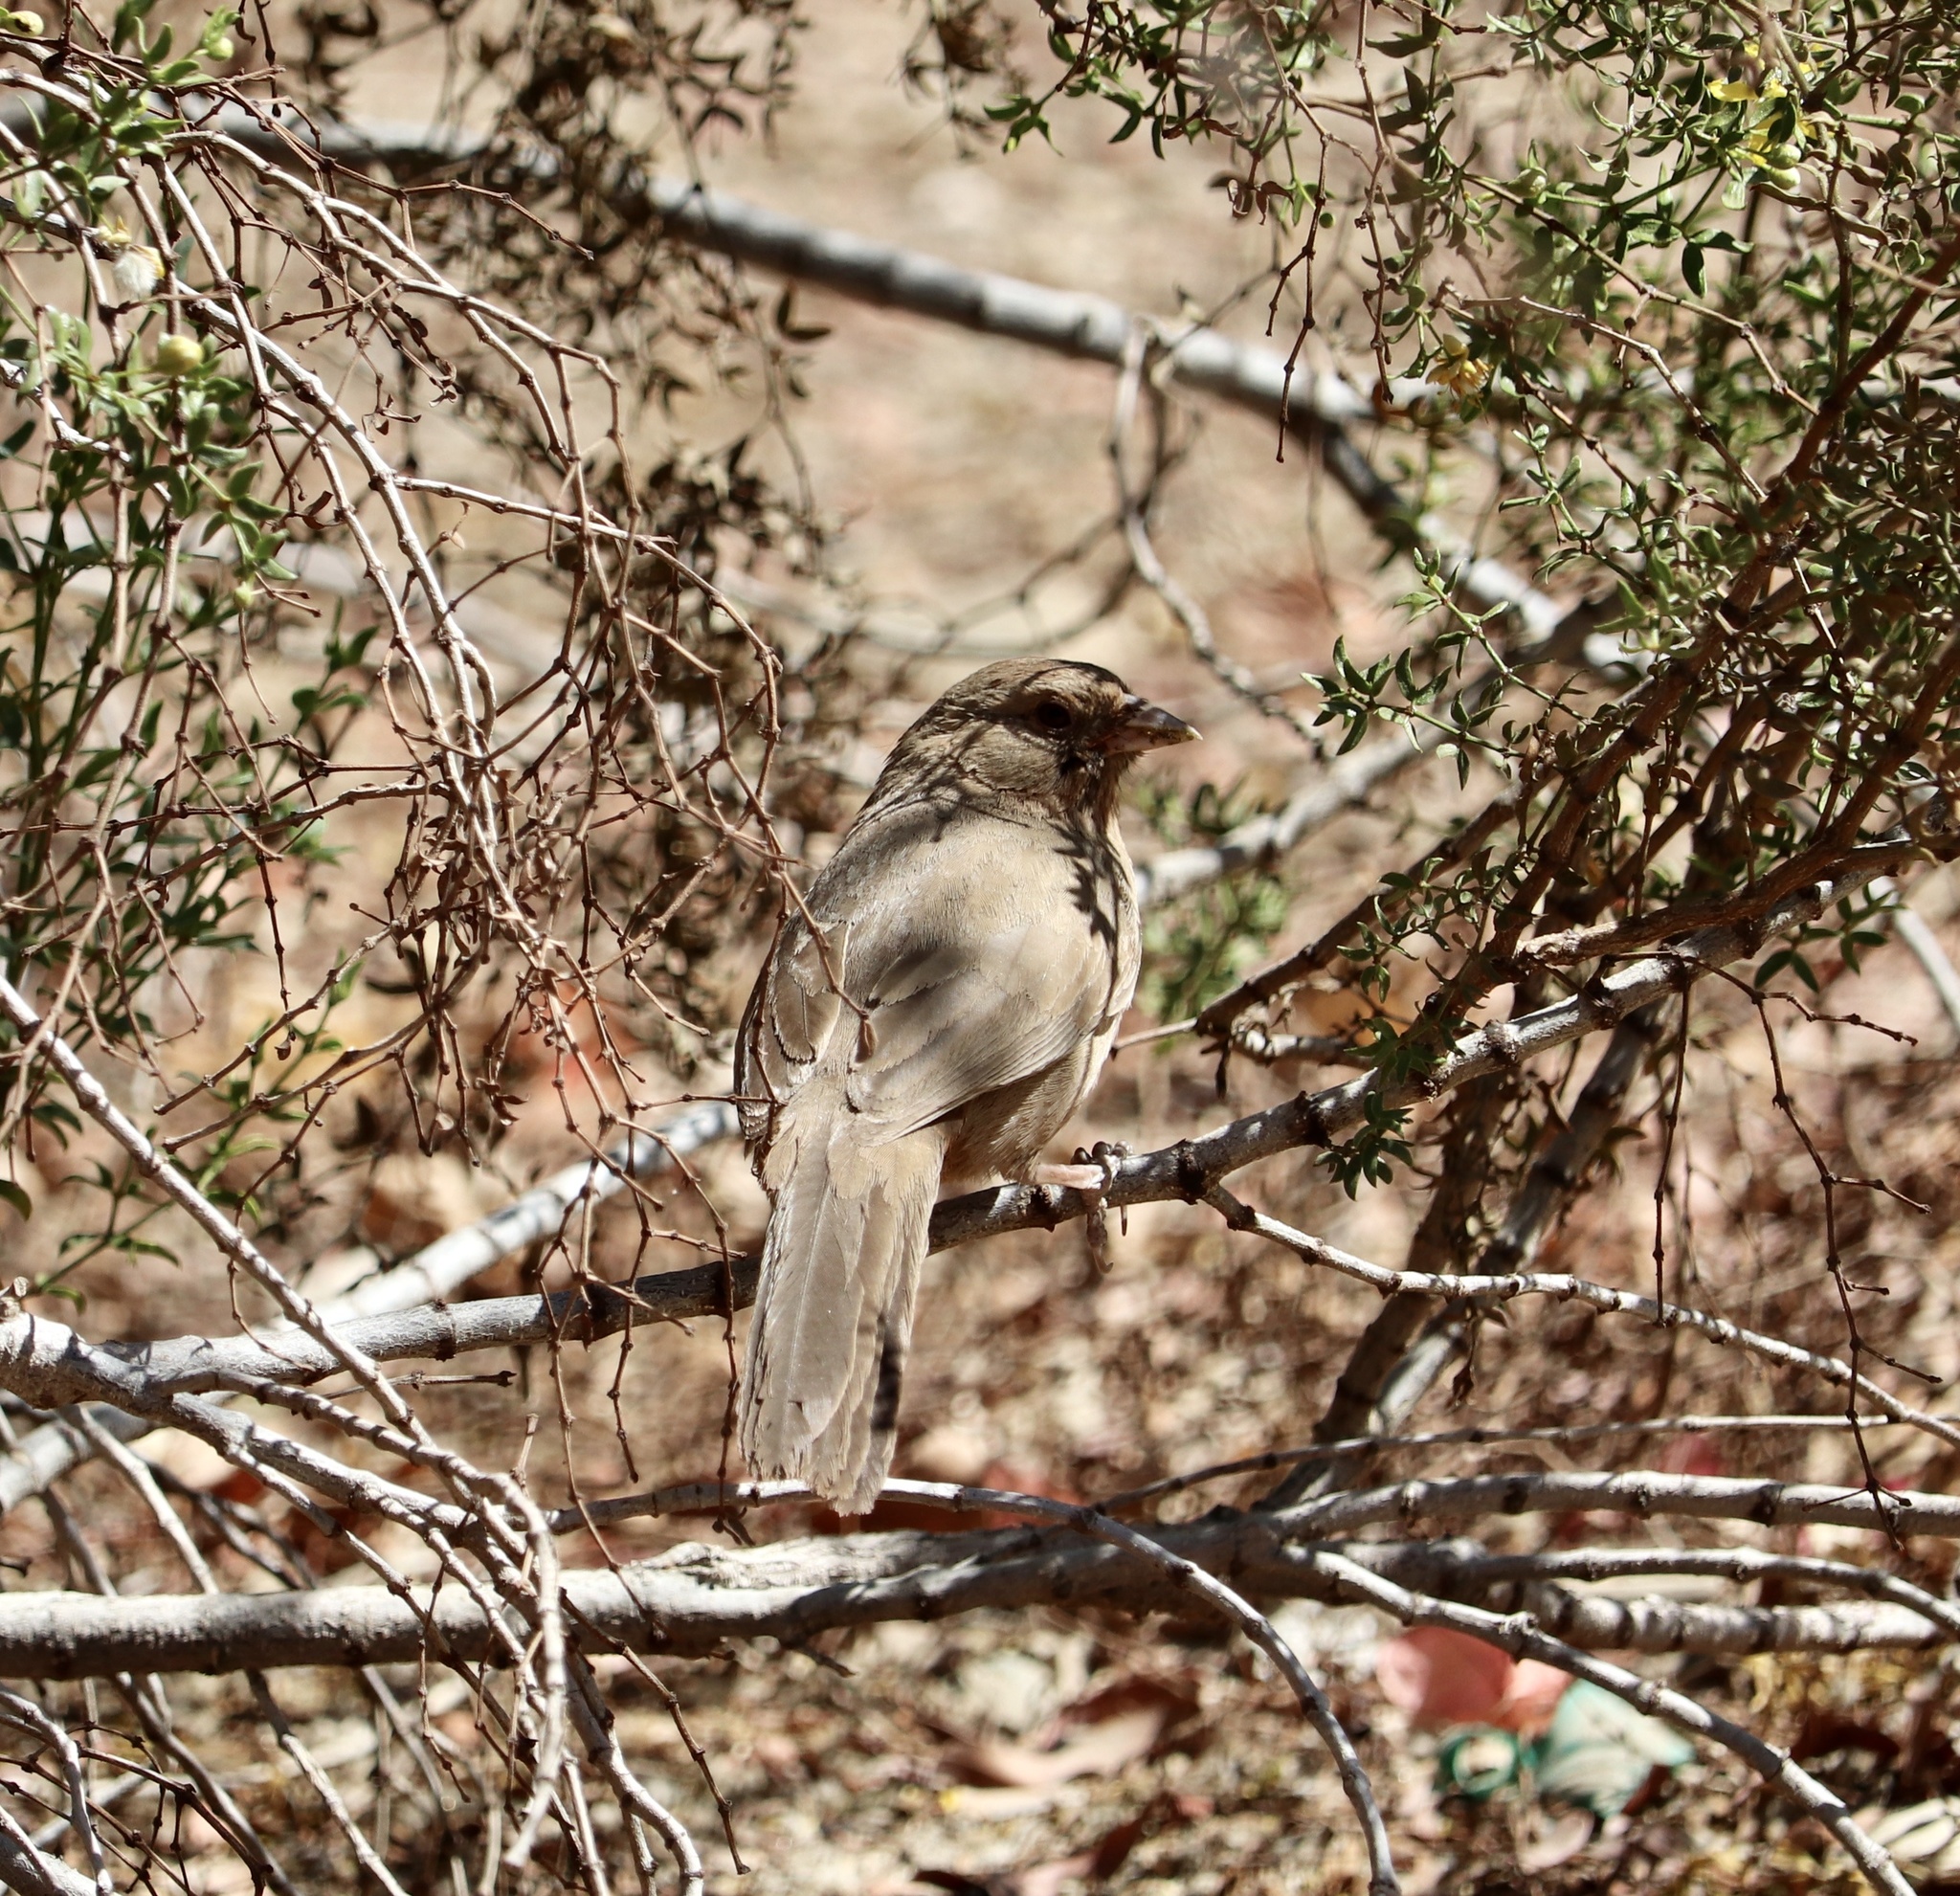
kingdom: Animalia
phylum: Chordata
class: Aves
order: Passeriformes
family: Passerellidae
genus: Melozone
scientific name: Melozone crissalis
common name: California towhee
